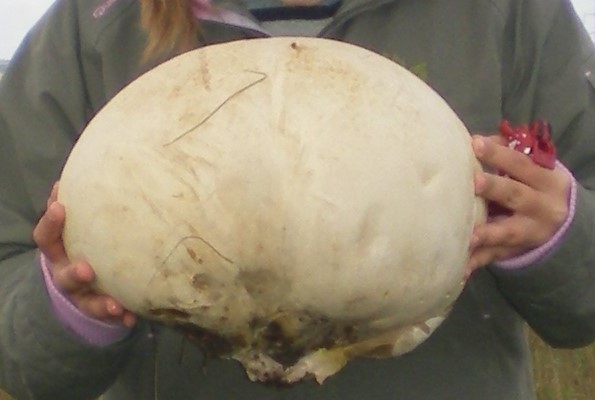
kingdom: Fungi
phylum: Basidiomycota
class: Agaricomycetes
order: Agaricales
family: Lycoperdaceae
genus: Calvatia
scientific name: Calvatia gigantea
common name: Giant puffball
